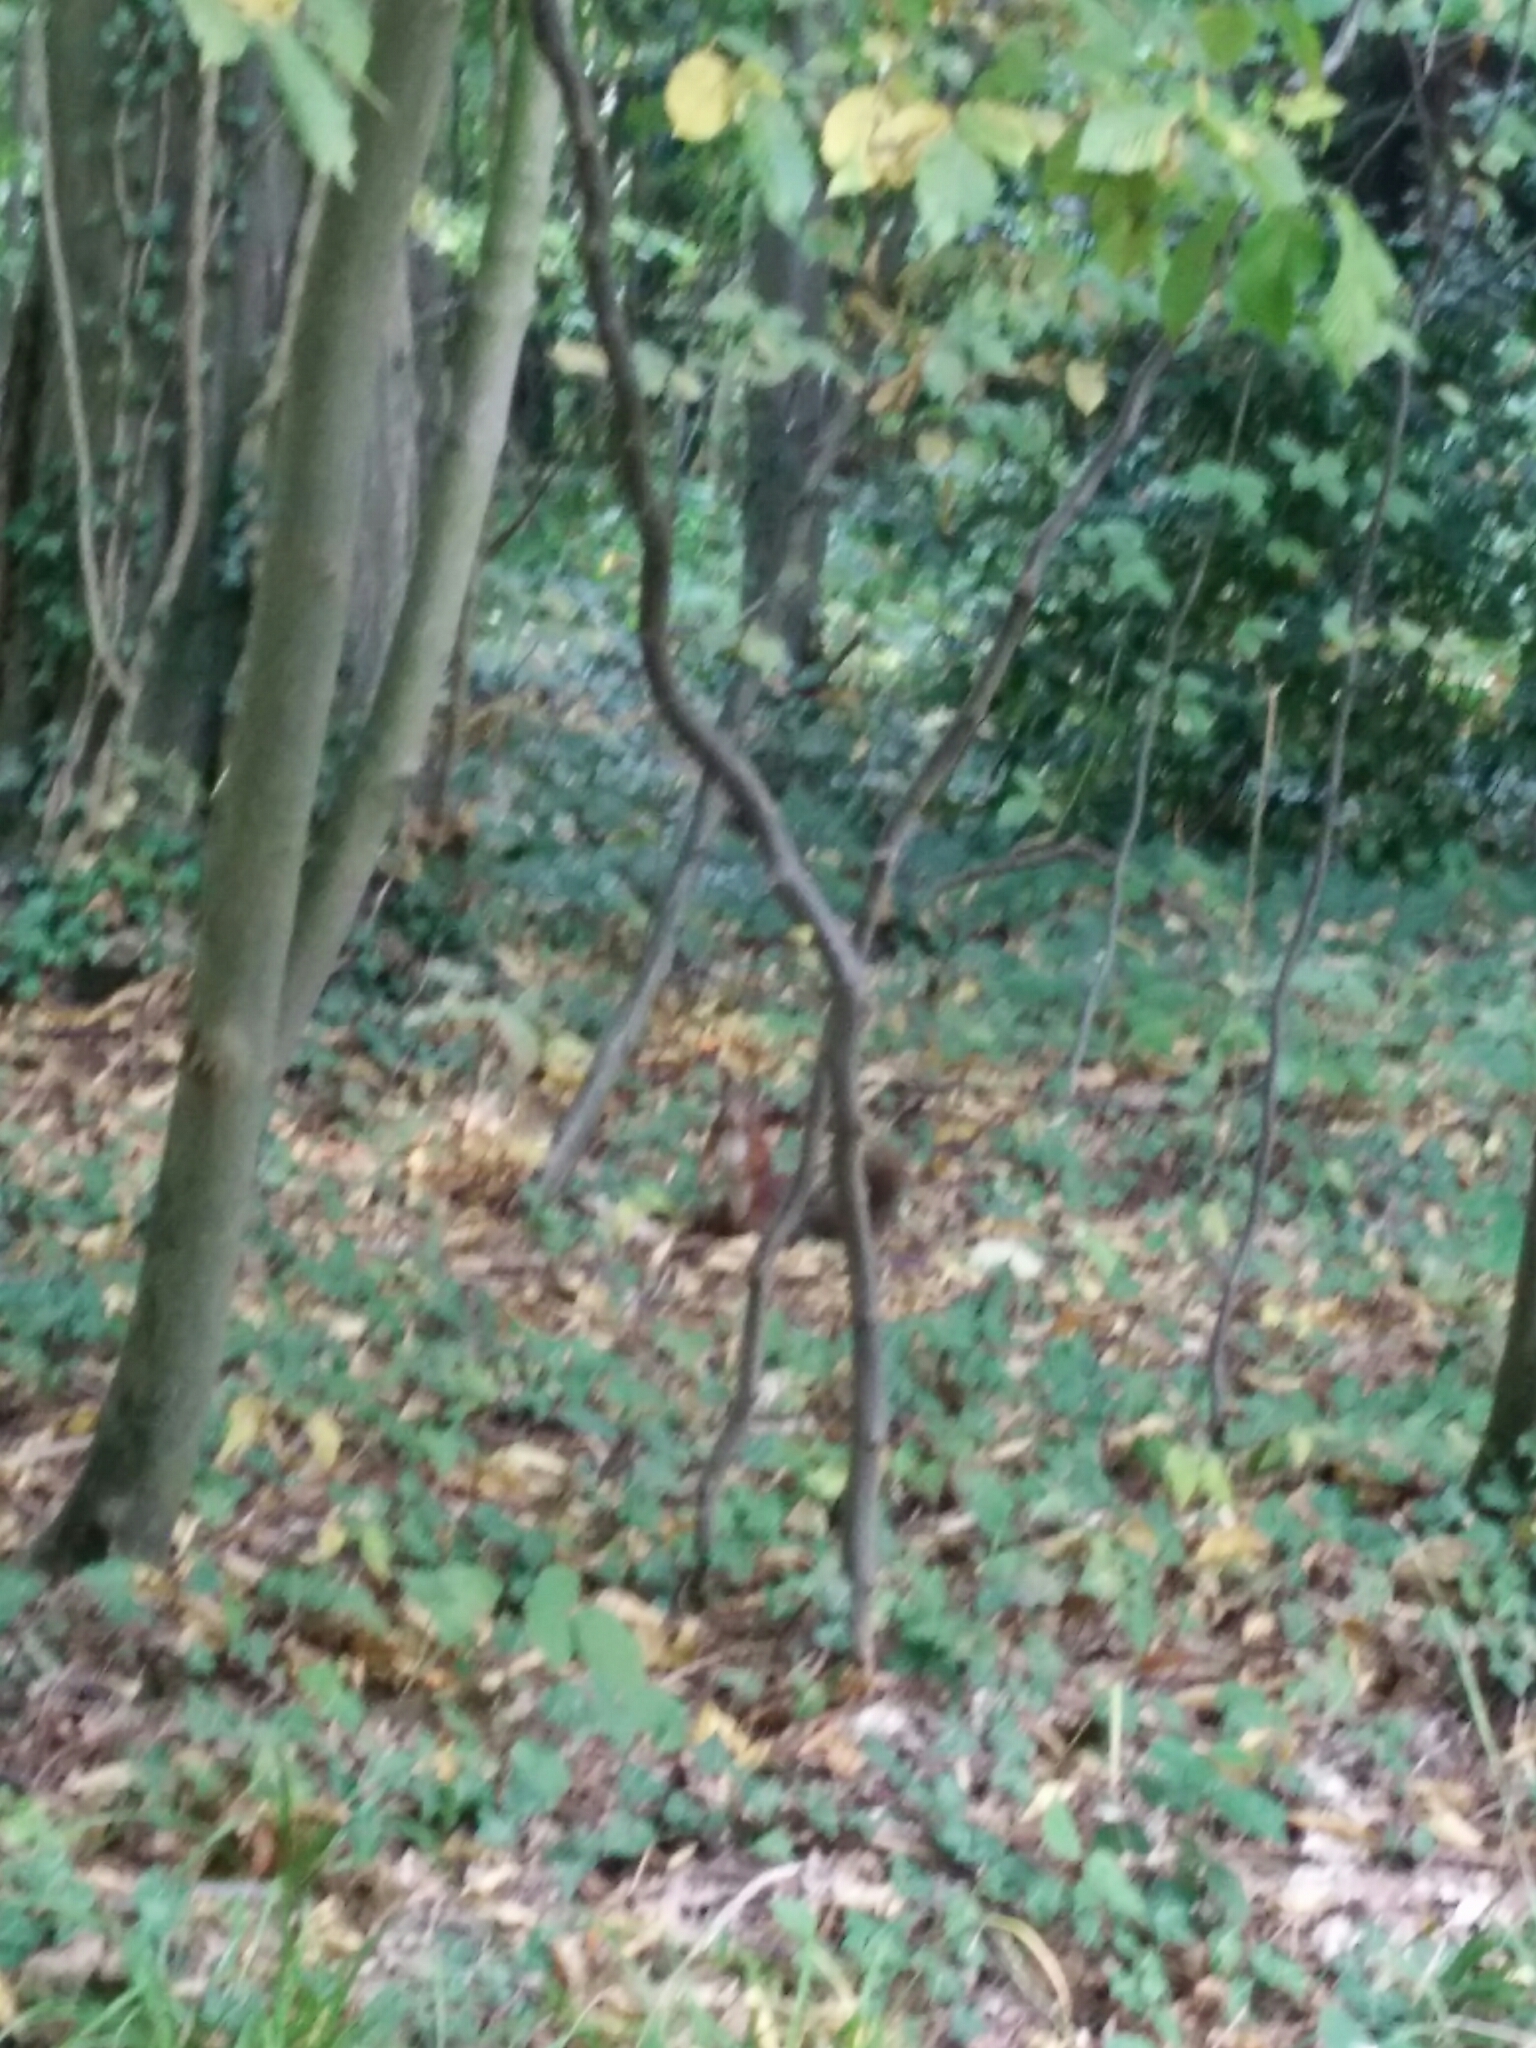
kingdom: Animalia
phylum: Chordata
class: Mammalia
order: Rodentia
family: Sciuridae
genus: Sciurus
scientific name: Sciurus vulgaris
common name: Eurasian red squirrel
